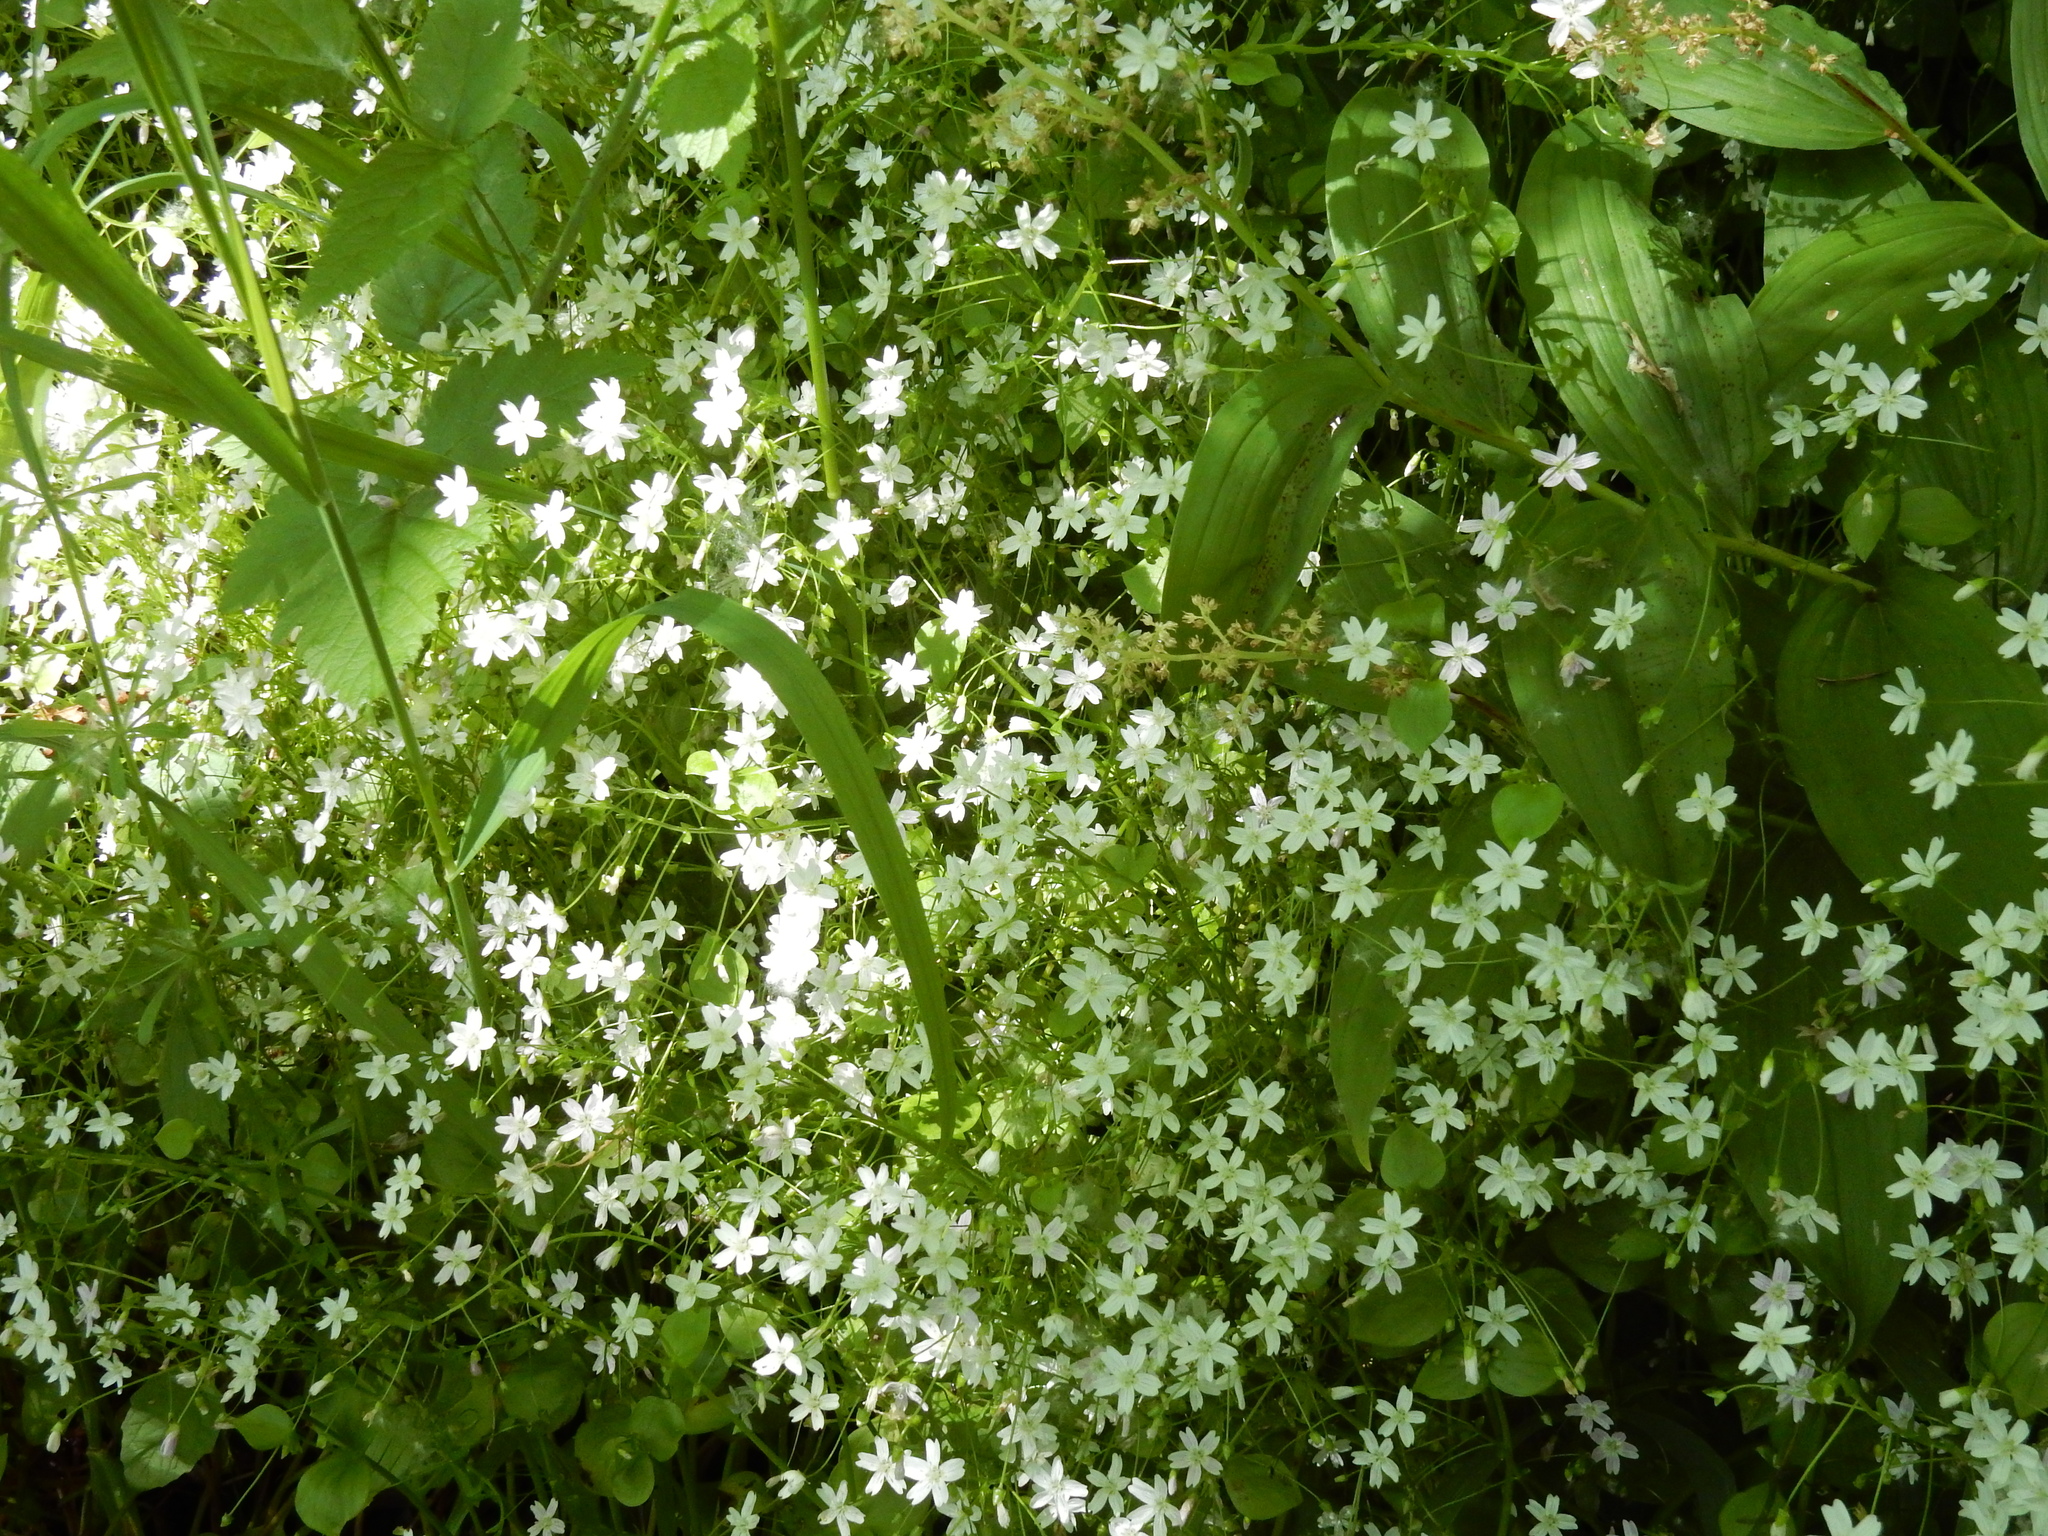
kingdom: Plantae
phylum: Tracheophyta
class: Magnoliopsida
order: Caryophyllales
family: Montiaceae
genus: Claytonia
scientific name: Claytonia sibirica
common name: Pink purslane
